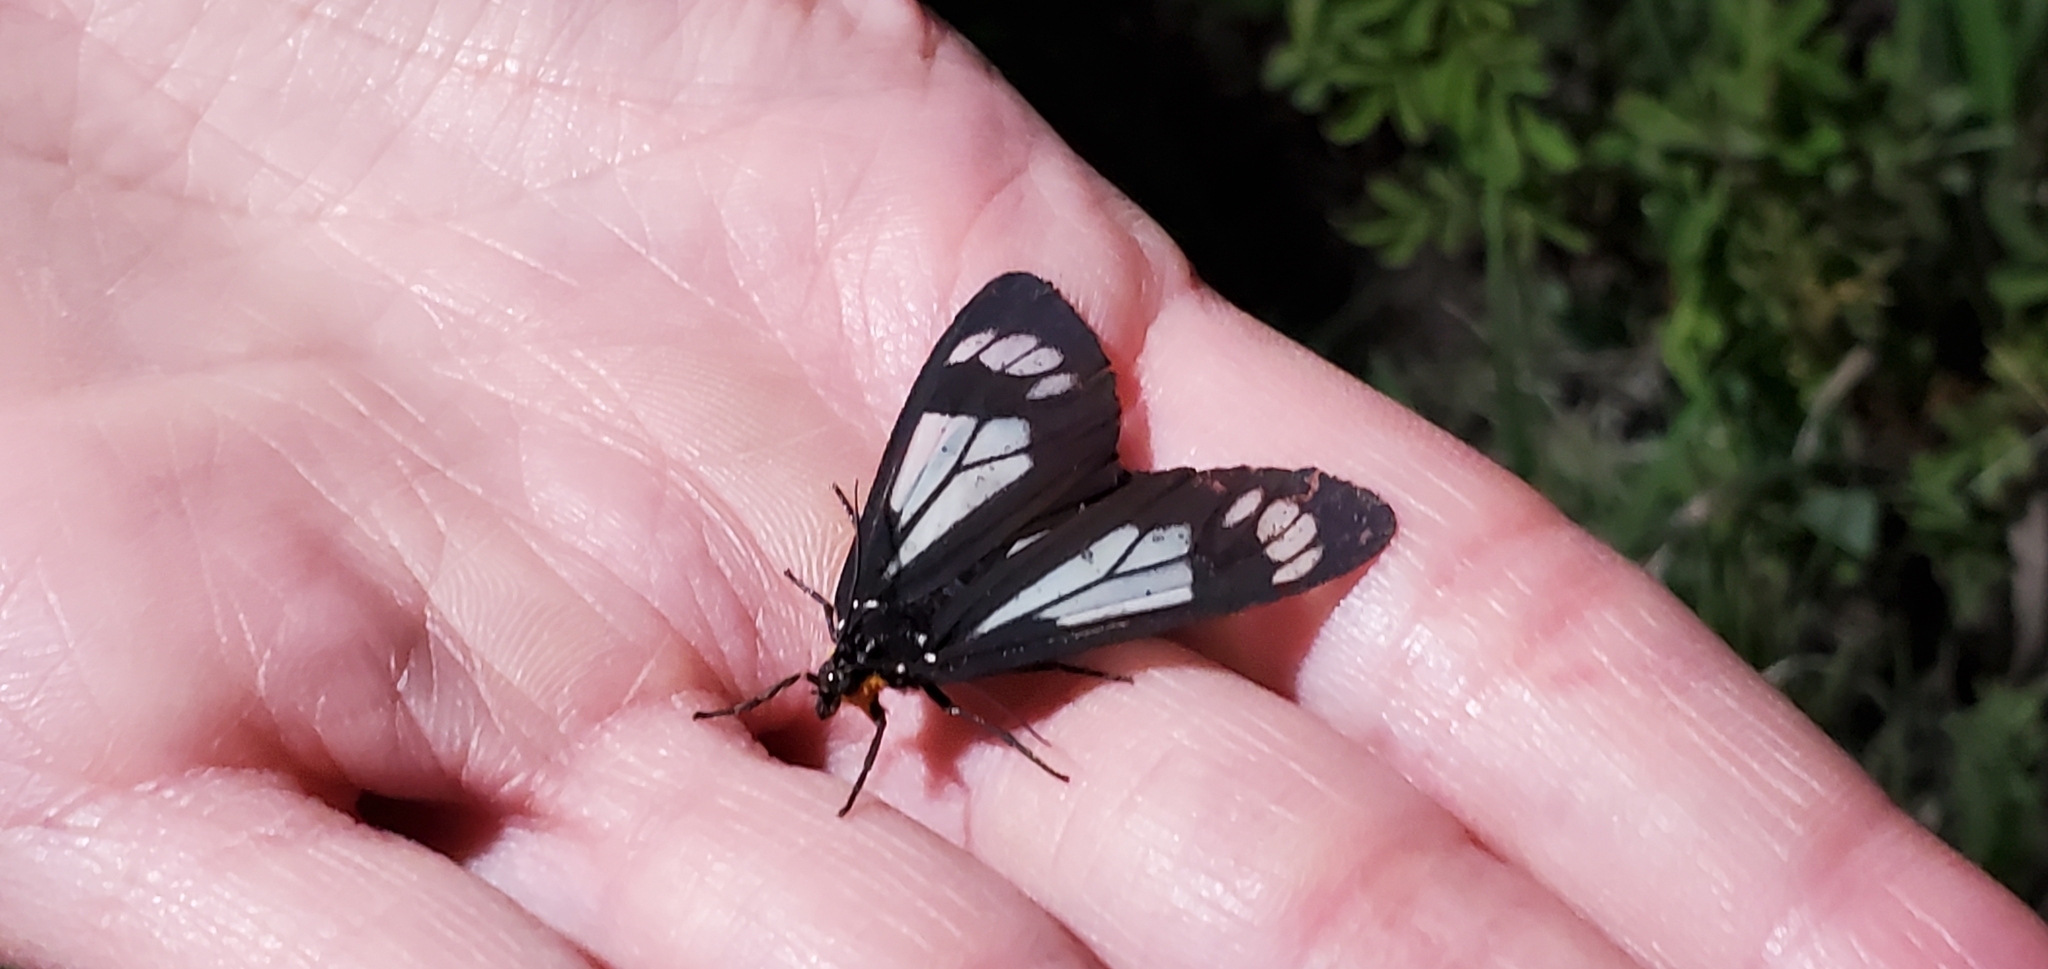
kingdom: Animalia
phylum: Arthropoda
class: Insecta
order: Lepidoptera
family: Erebidae
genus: Gnophaela
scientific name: Gnophaela vermiculata
